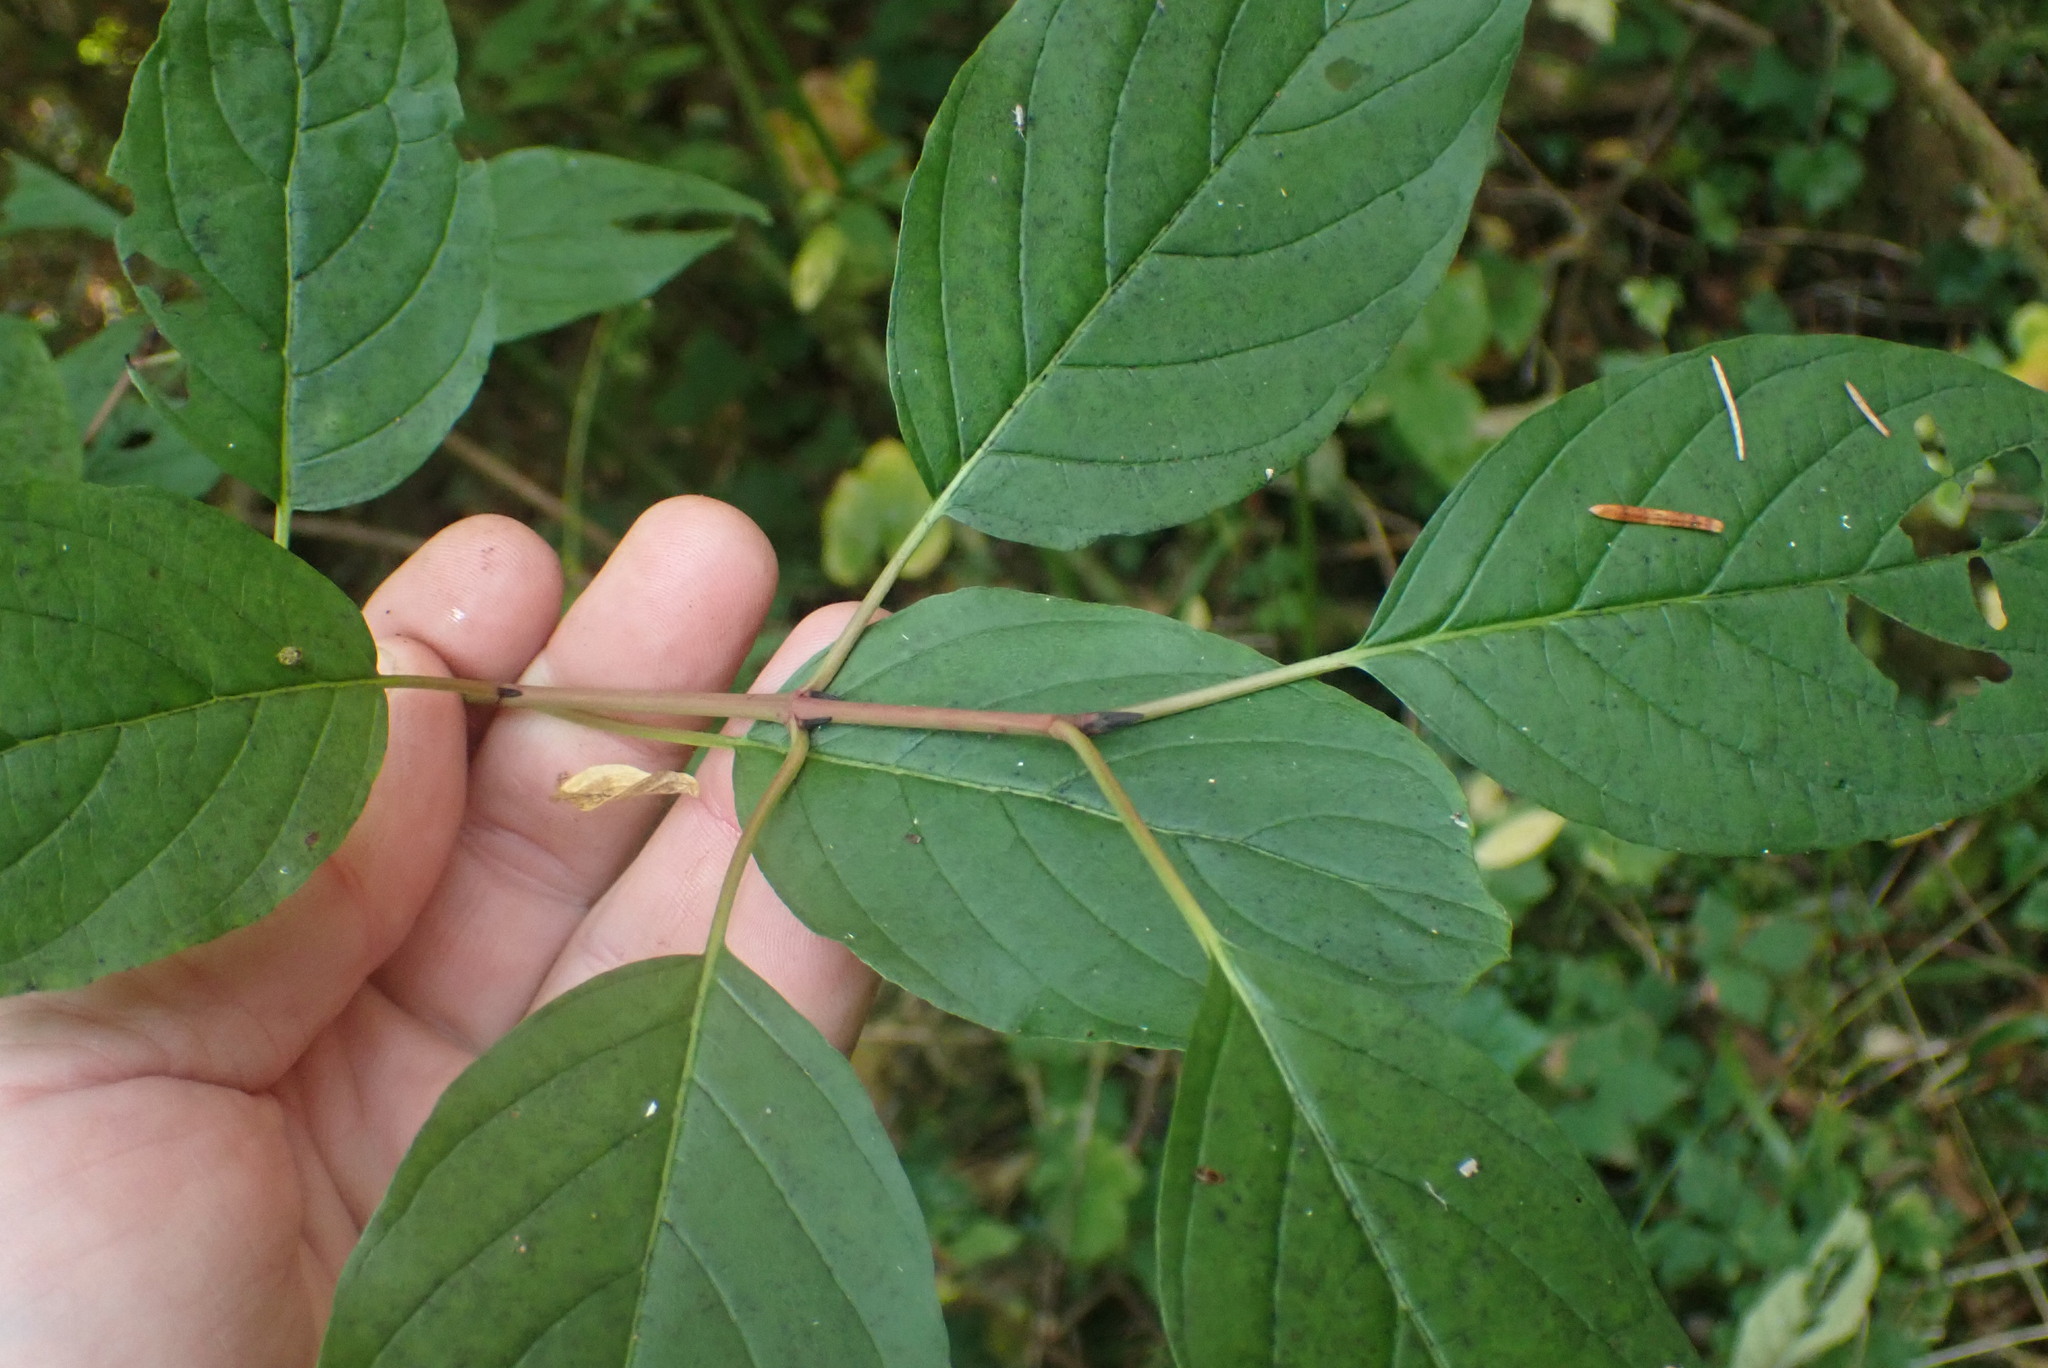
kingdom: Plantae
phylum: Tracheophyta
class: Magnoliopsida
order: Cornales
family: Cornaceae
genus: Cornus
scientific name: Cornus sericea
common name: Red-osier dogwood
